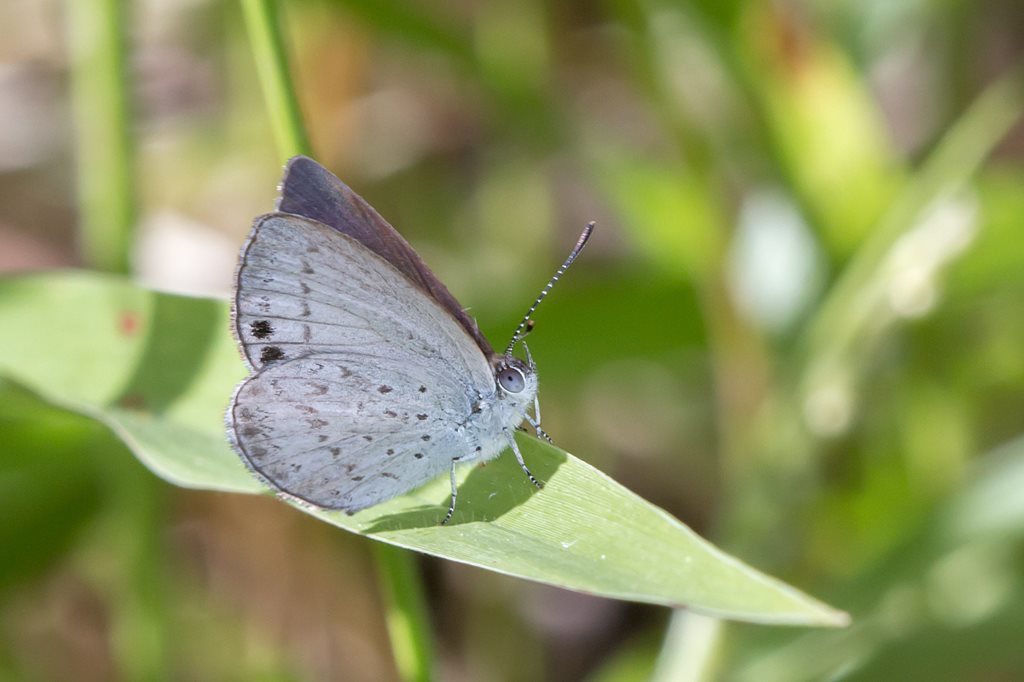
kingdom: Animalia
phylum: Arthropoda
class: Insecta
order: Lepidoptera
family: Lycaenidae
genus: Candalides
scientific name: Candalides
